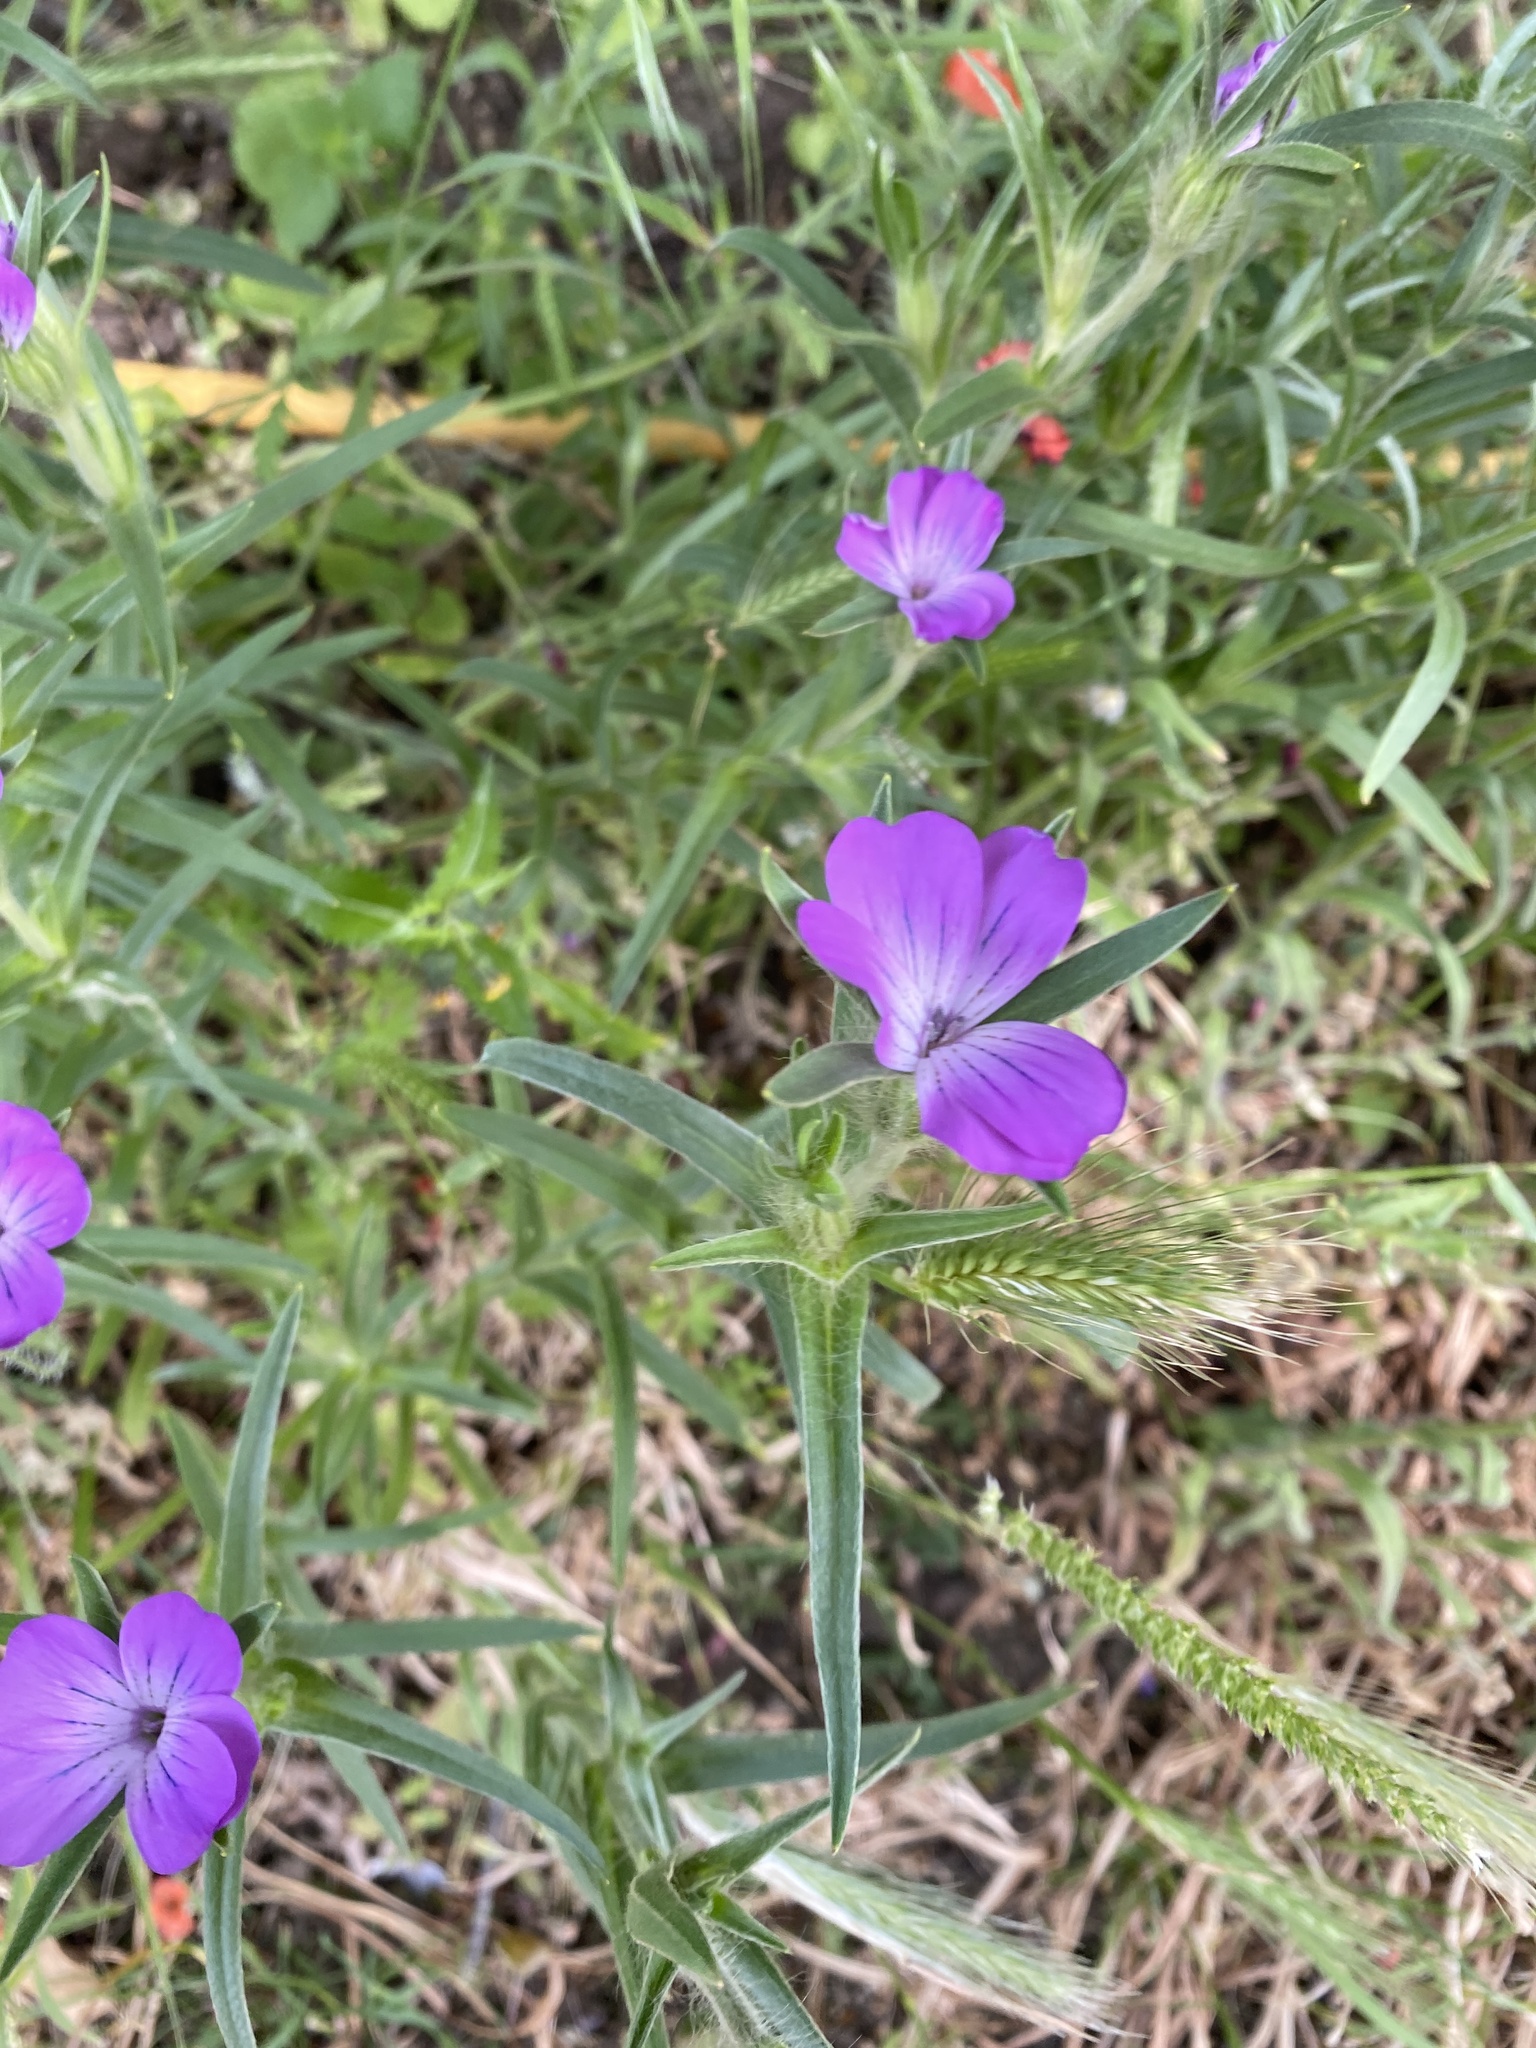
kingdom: Plantae
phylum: Tracheophyta
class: Magnoliopsida
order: Caryophyllales
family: Caryophyllaceae
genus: Agrostemma
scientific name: Agrostemma githago
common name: Common corncockle
